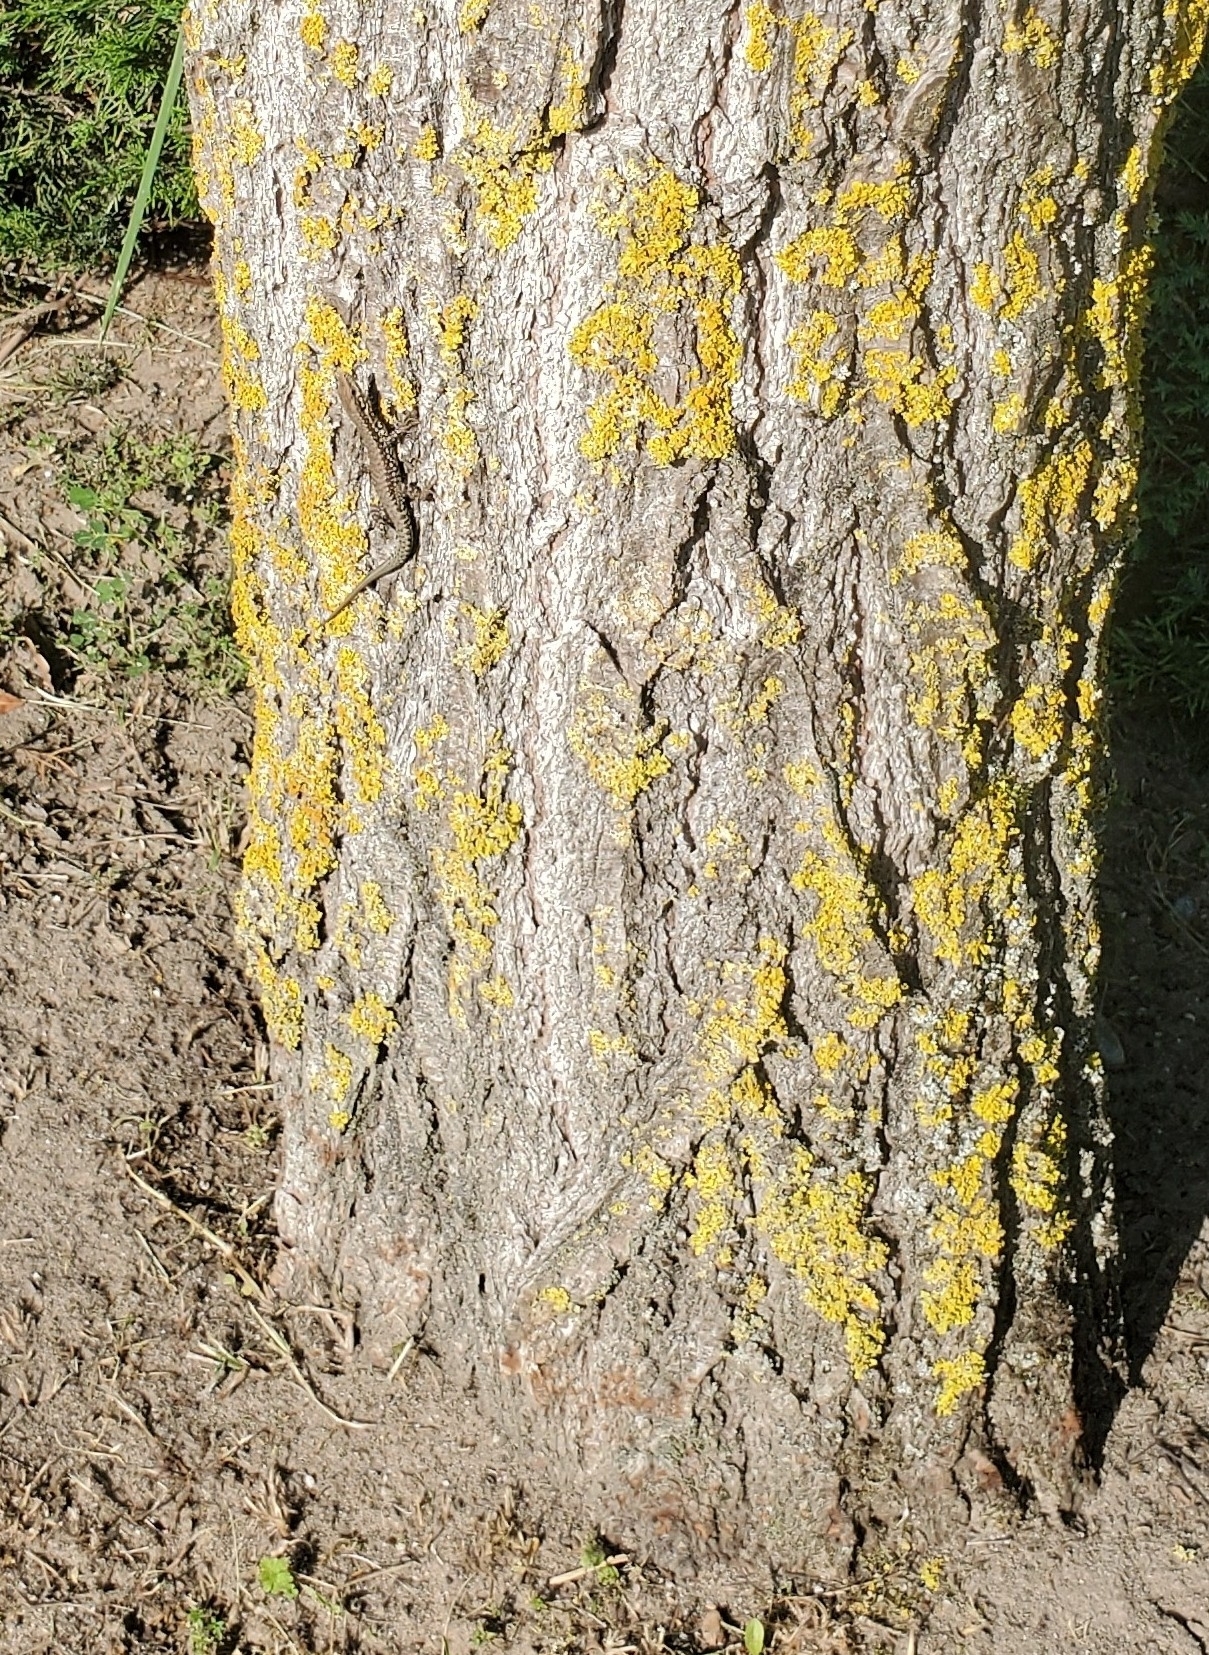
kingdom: Animalia
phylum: Chordata
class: Squamata
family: Lacertidae
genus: Podarcis
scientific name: Podarcis muralis
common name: Common wall lizard
